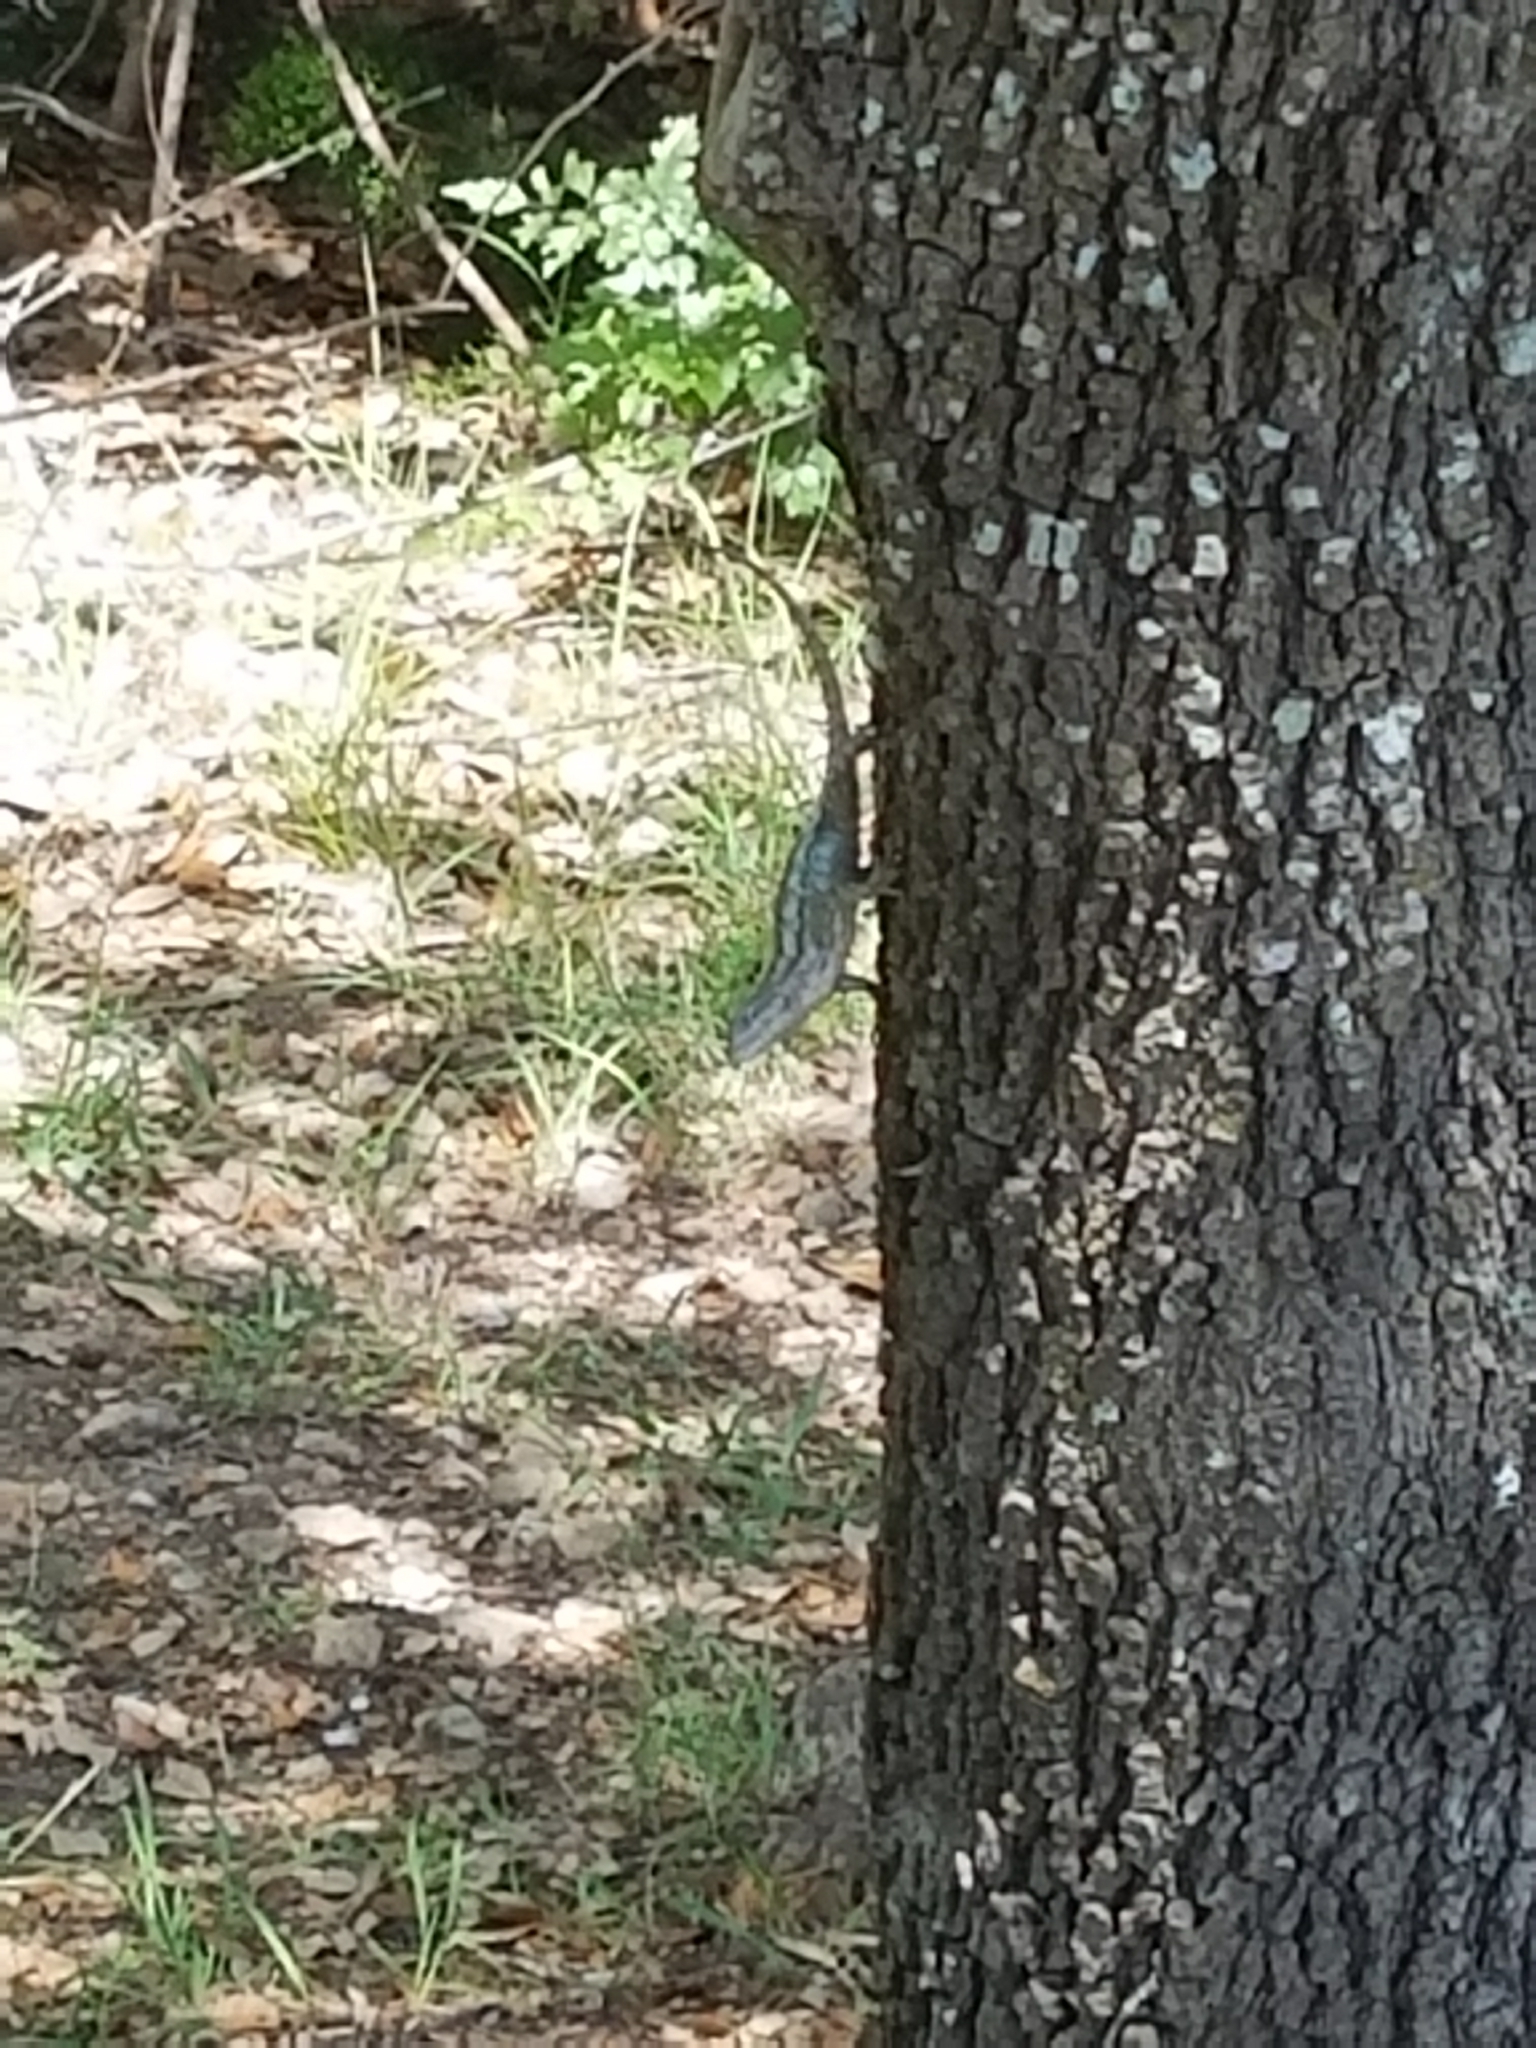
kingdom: Animalia
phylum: Chordata
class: Squamata
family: Phrynosomatidae
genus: Sceloporus
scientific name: Sceloporus olivaceus
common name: Texas spiny lizard
